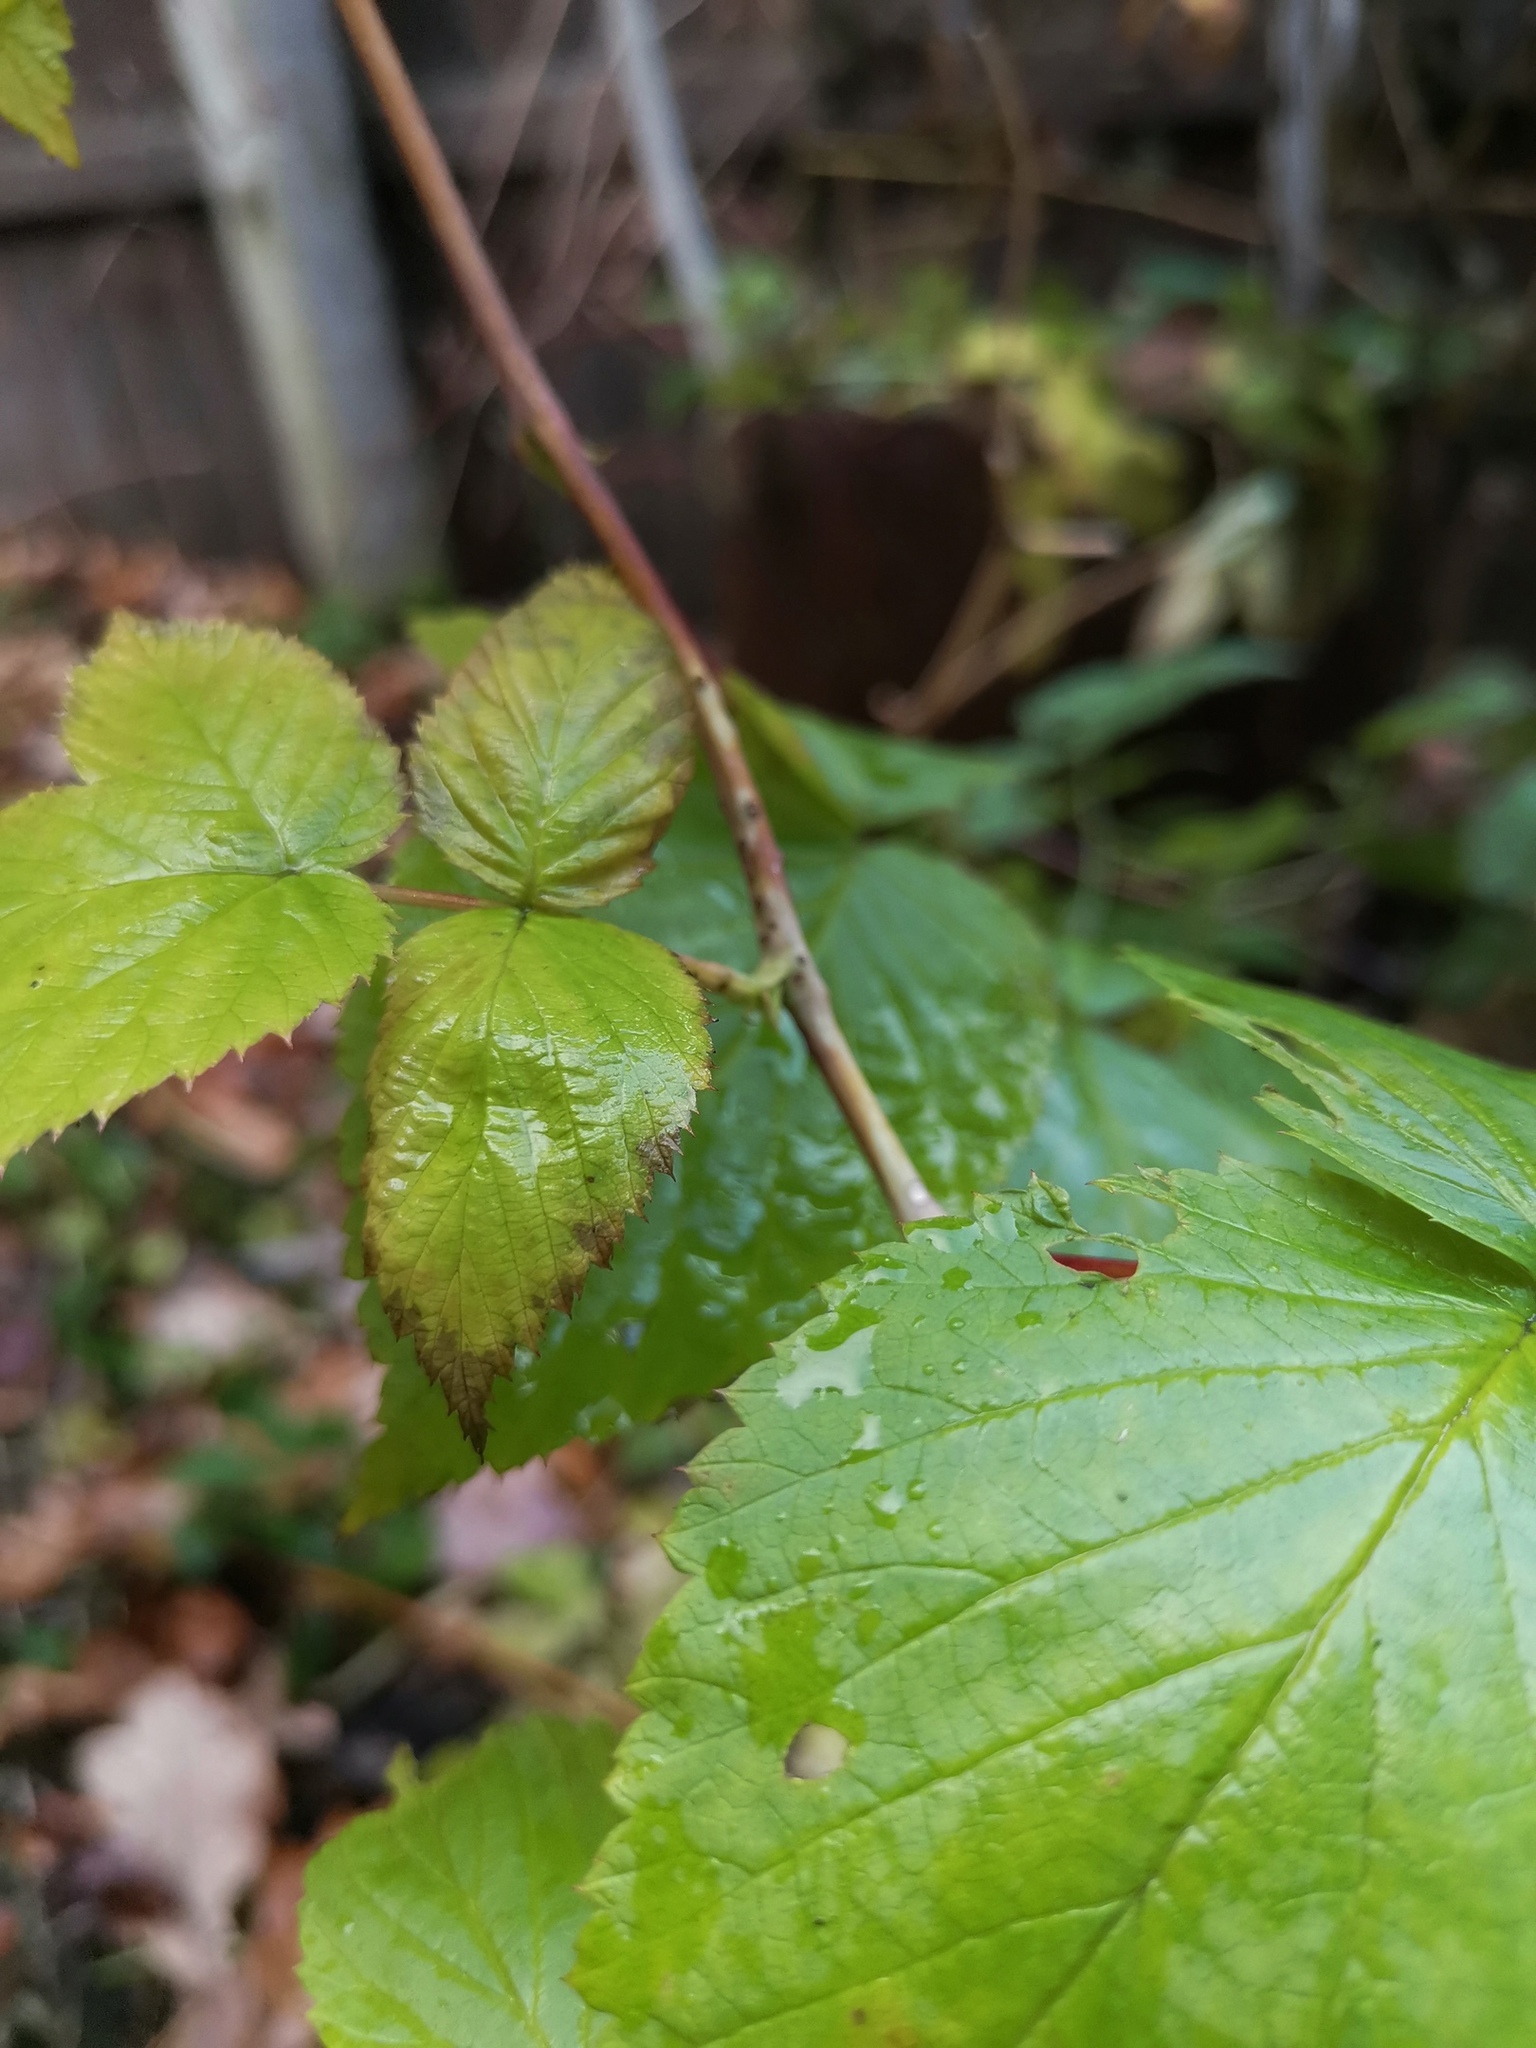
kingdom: Plantae
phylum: Tracheophyta
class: Magnoliopsida
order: Rosales
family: Rosaceae
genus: Rubus
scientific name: Rubus idaeus
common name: Raspberry
